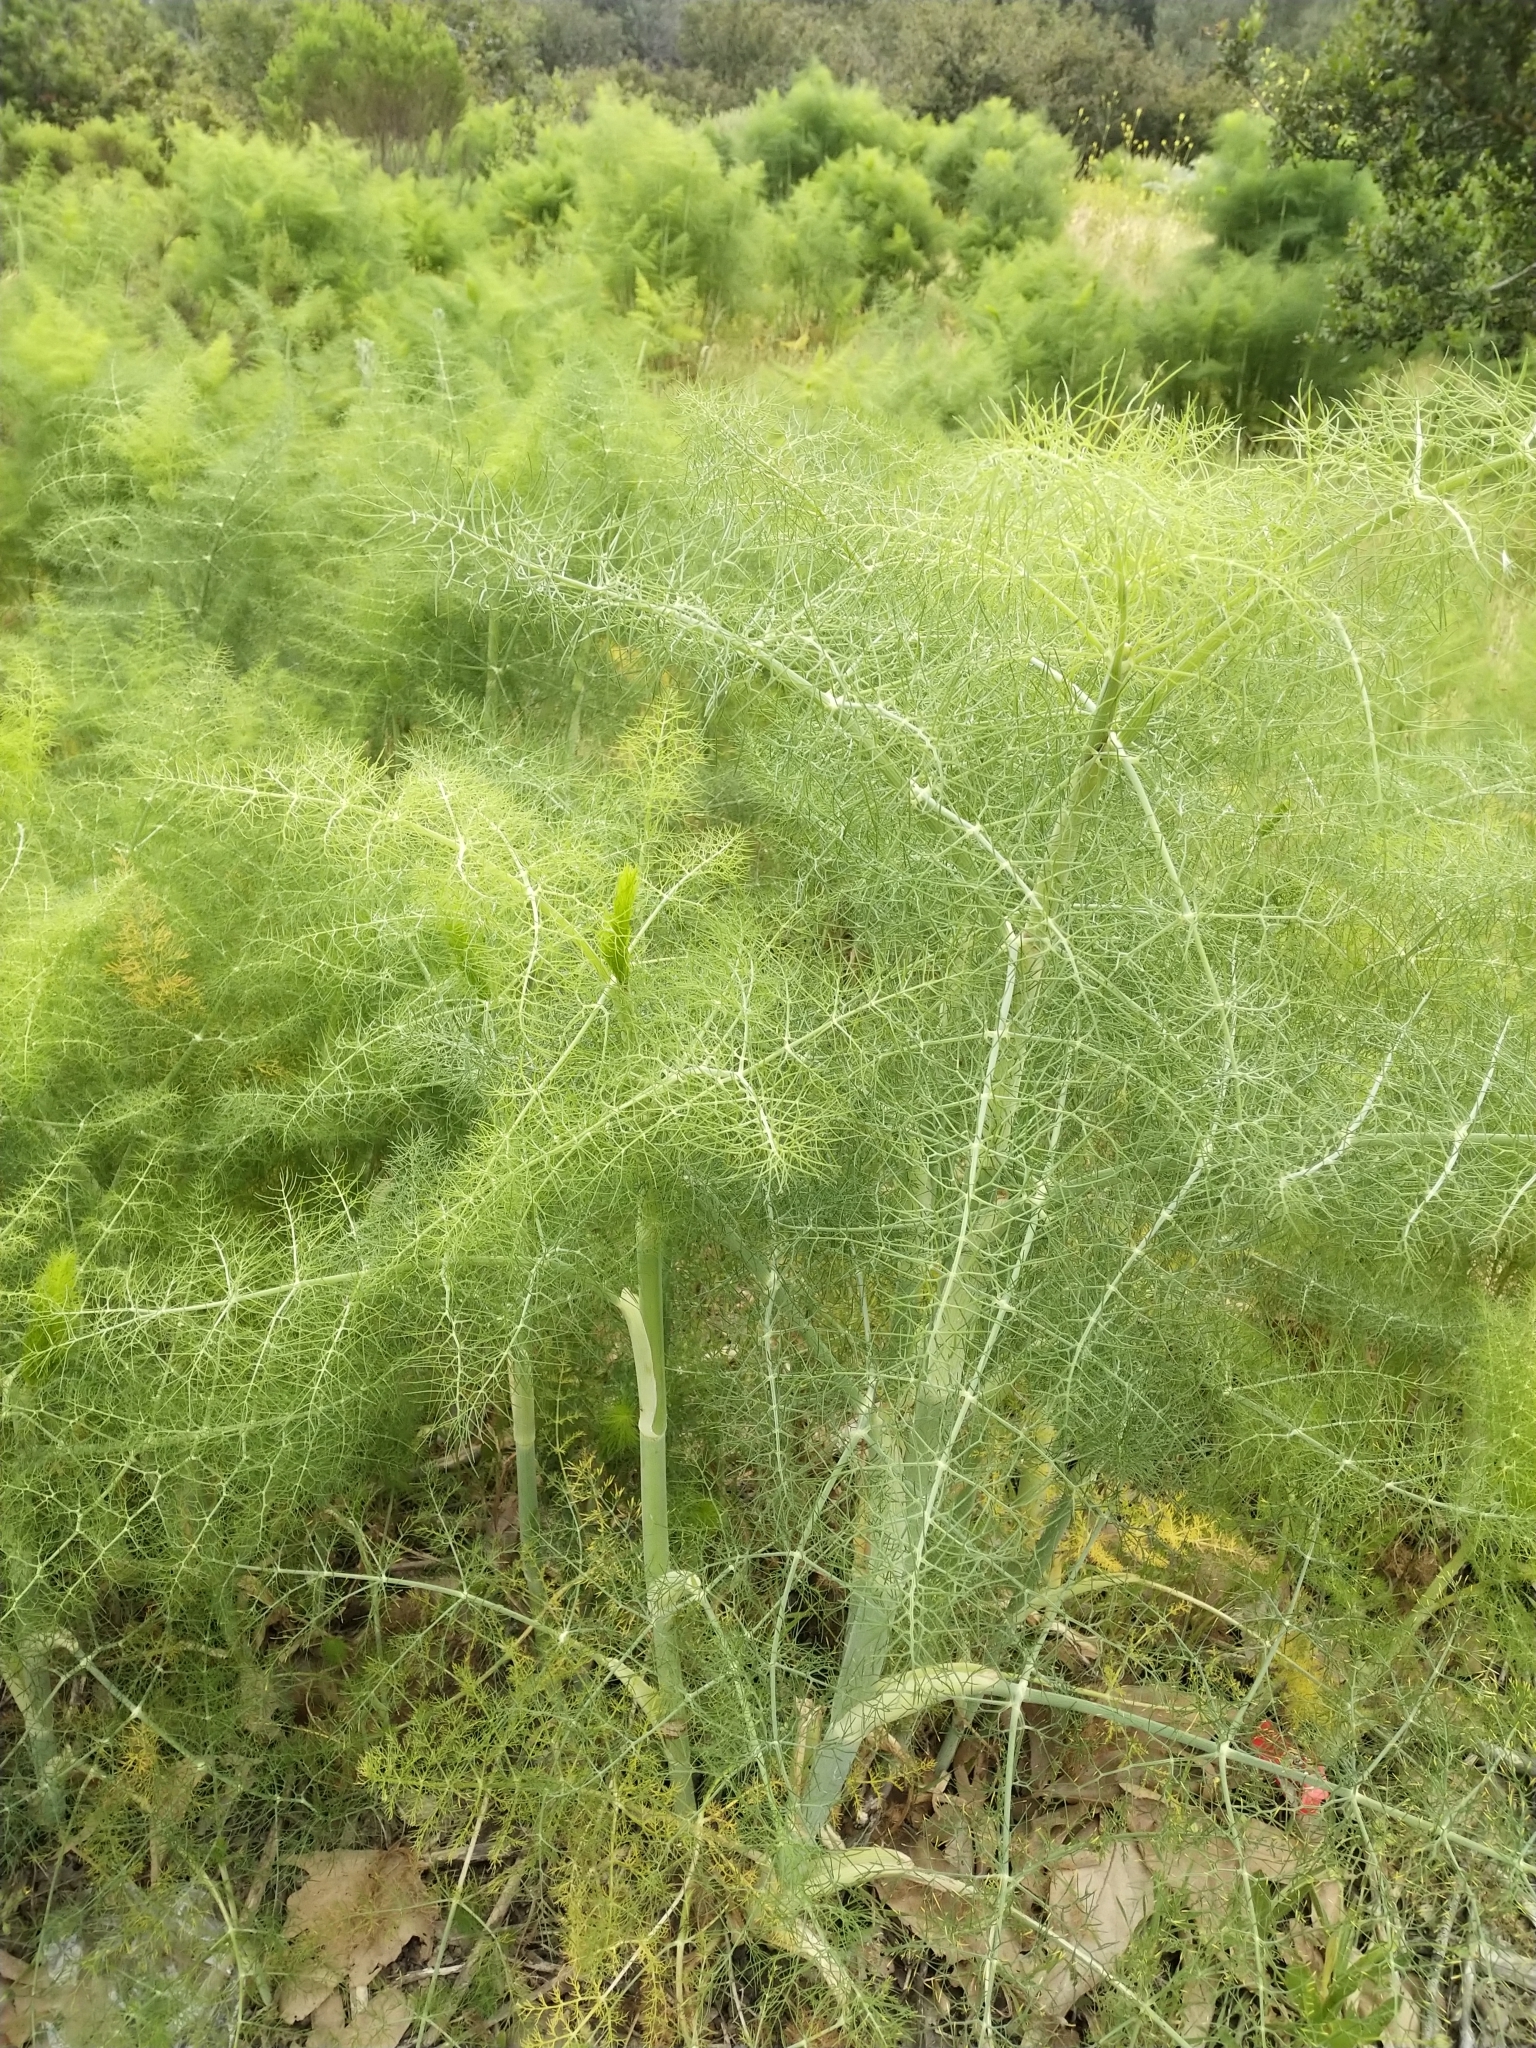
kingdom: Plantae
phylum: Tracheophyta
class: Magnoliopsida
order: Apiales
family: Apiaceae
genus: Foeniculum
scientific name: Foeniculum vulgare
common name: Fennel
